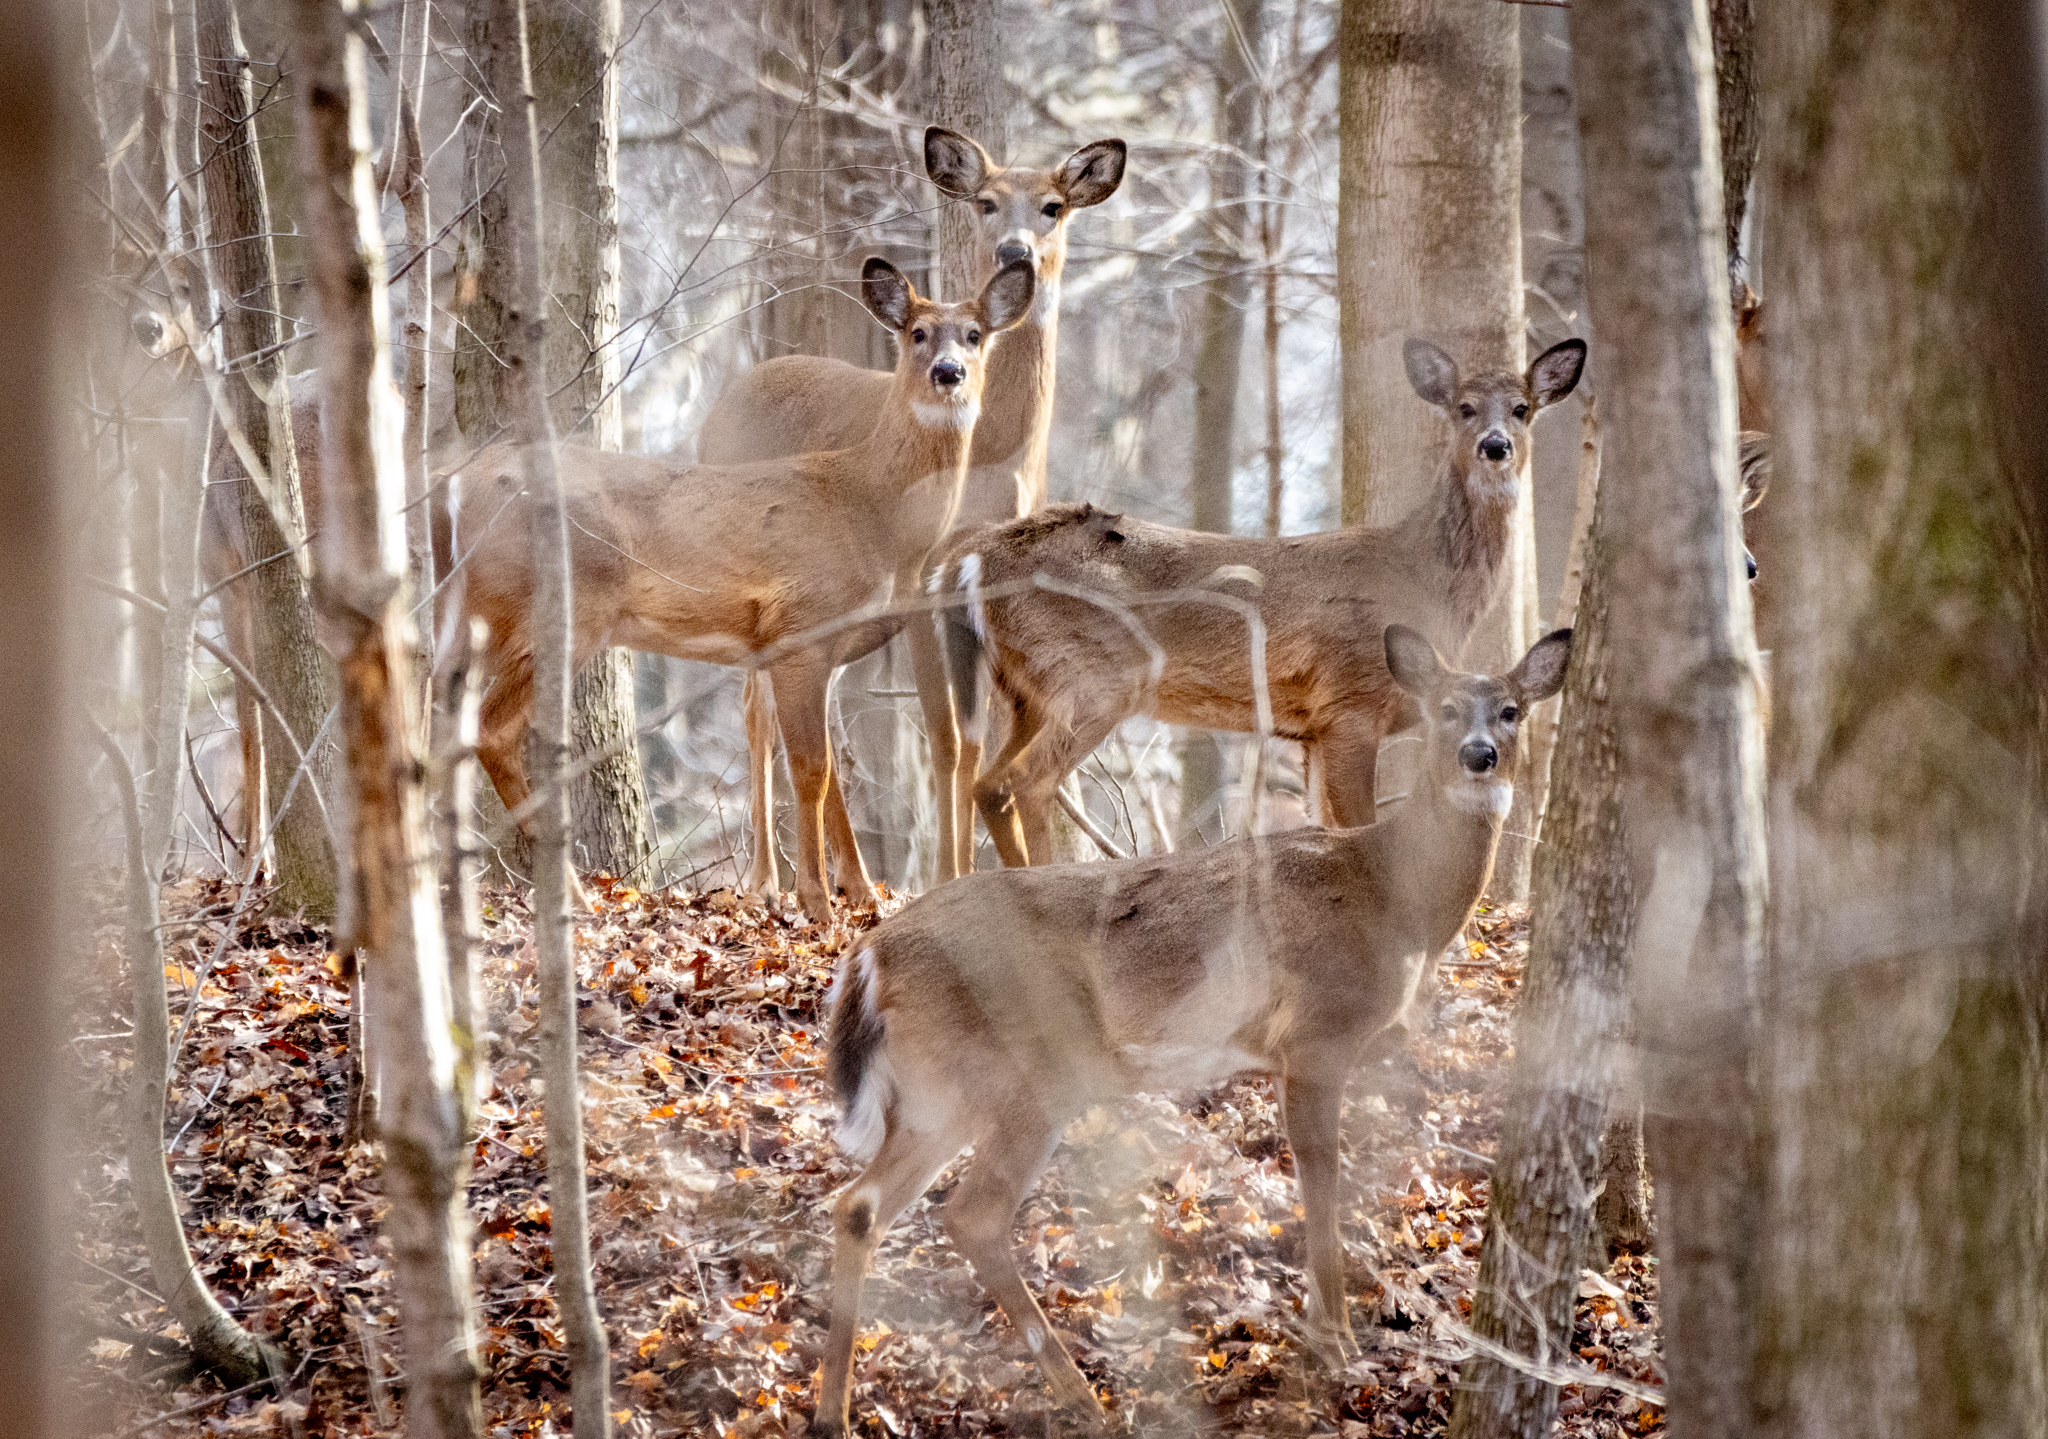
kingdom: Animalia
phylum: Chordata
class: Mammalia
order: Artiodactyla
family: Cervidae
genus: Odocoileus
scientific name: Odocoileus virginianus
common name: White-tailed deer
